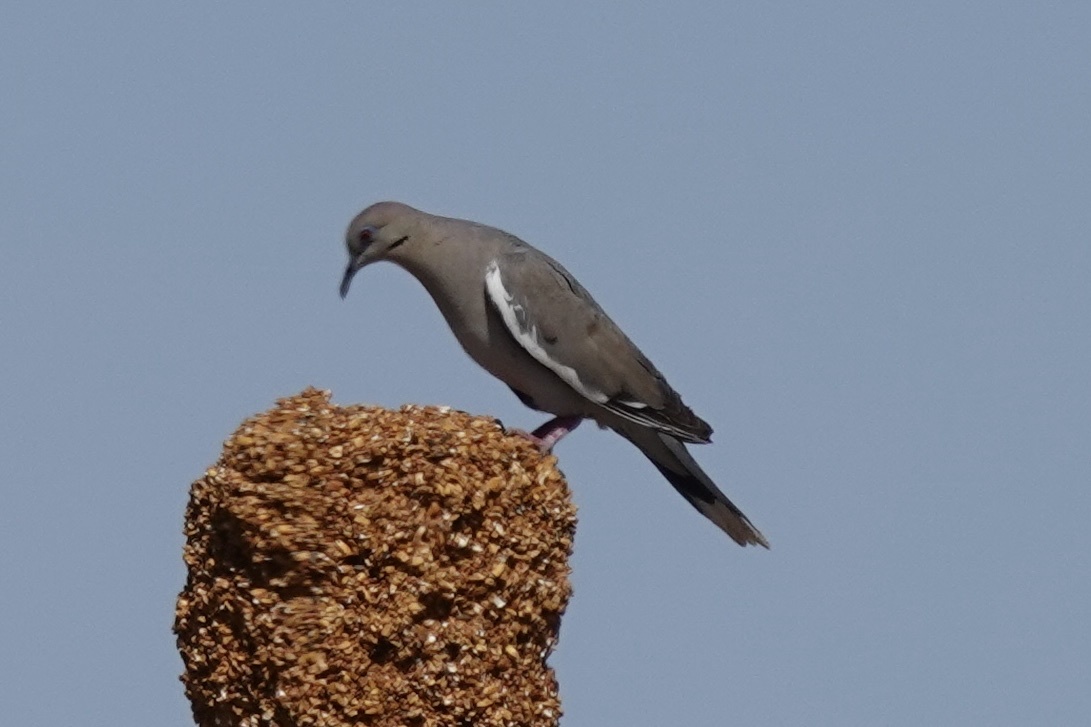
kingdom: Animalia
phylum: Chordata
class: Aves
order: Columbiformes
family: Columbidae
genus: Zenaida
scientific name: Zenaida asiatica
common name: White-winged dove
